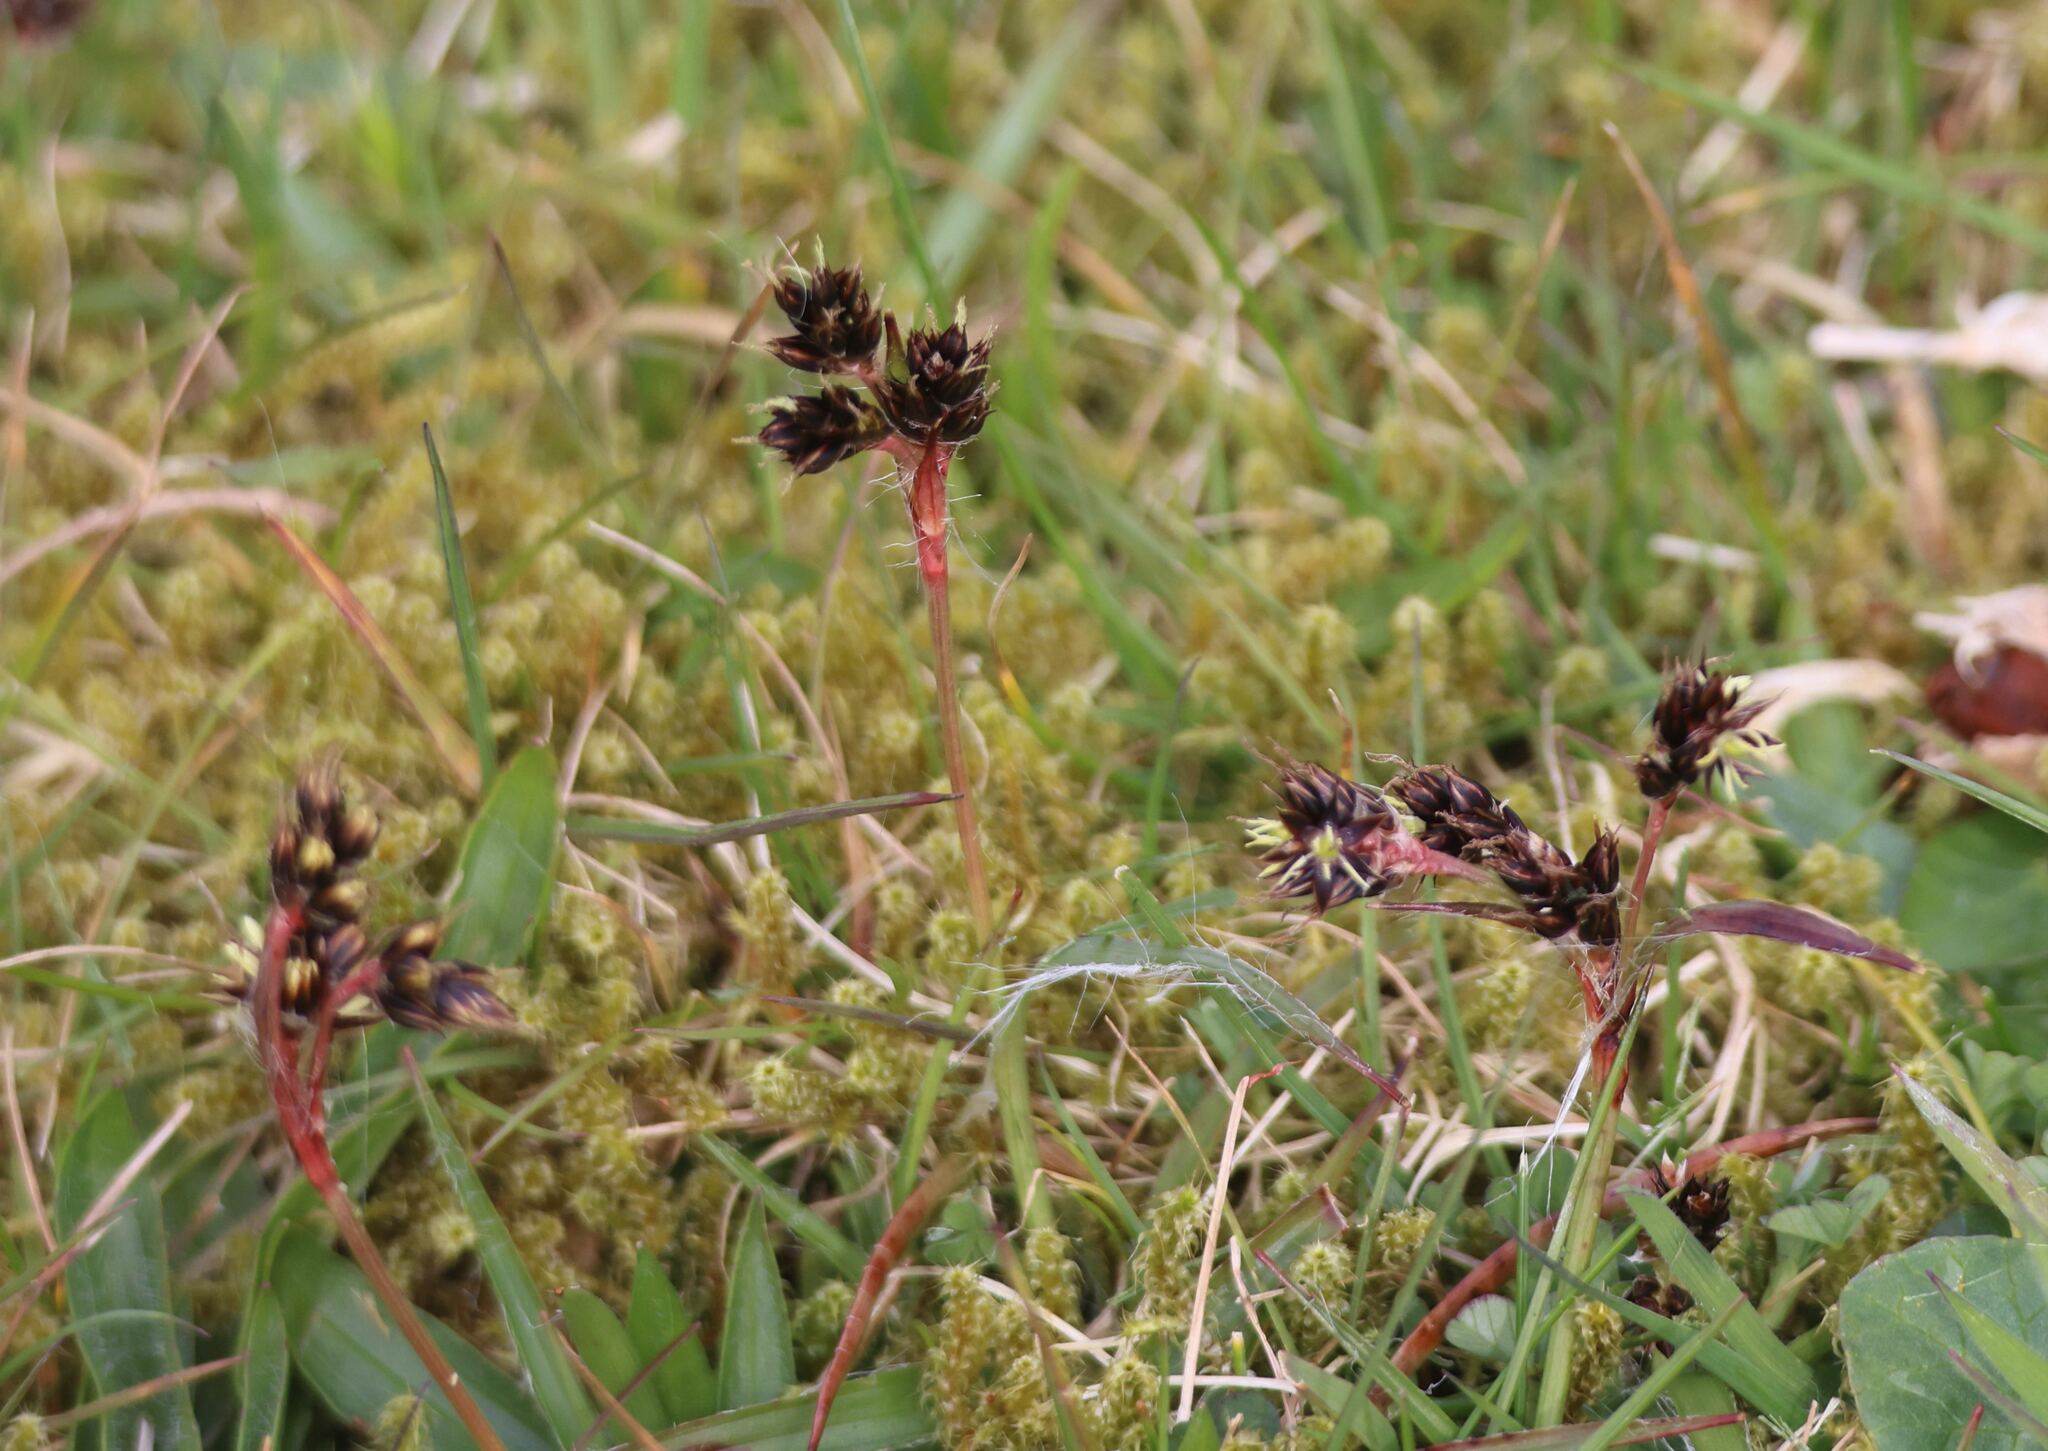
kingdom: Plantae
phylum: Tracheophyta
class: Liliopsida
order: Poales
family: Juncaceae
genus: Luzula
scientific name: Luzula campestris
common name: Field wood-rush
